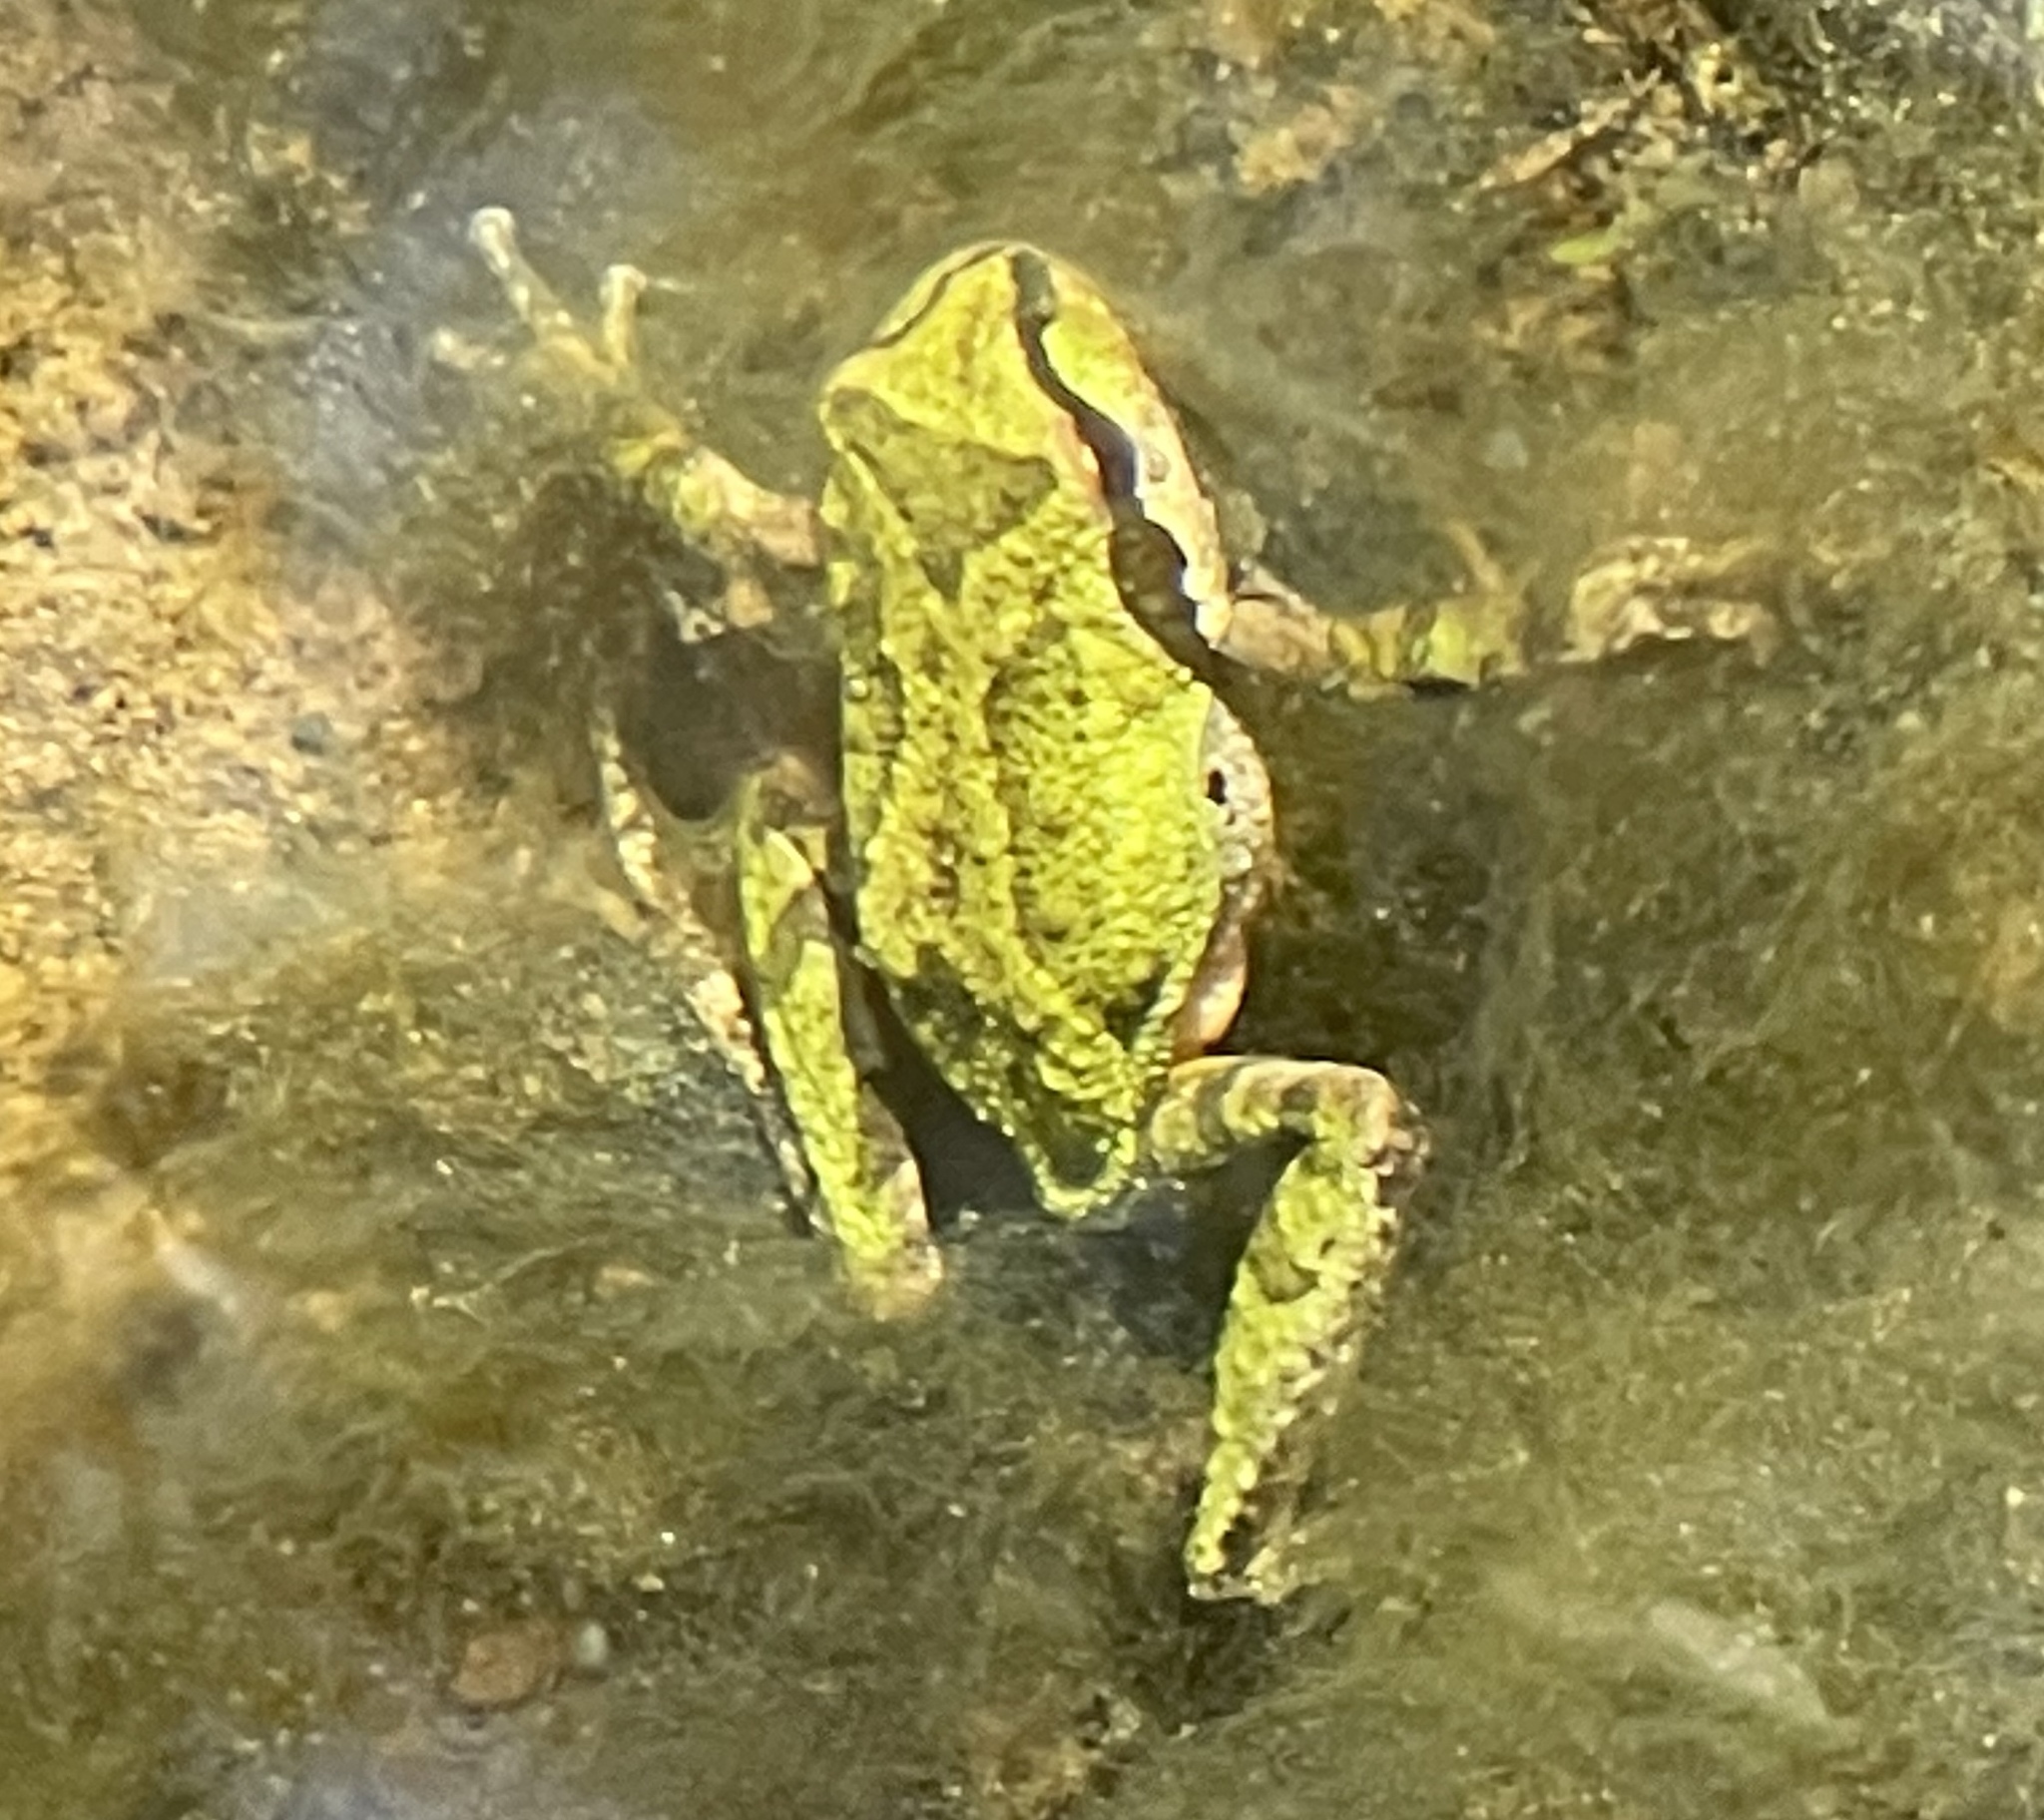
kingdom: Animalia
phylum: Chordata
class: Amphibia
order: Anura
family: Hylidae
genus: Pseudacris
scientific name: Pseudacris regilla
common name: Pacific chorus frog
